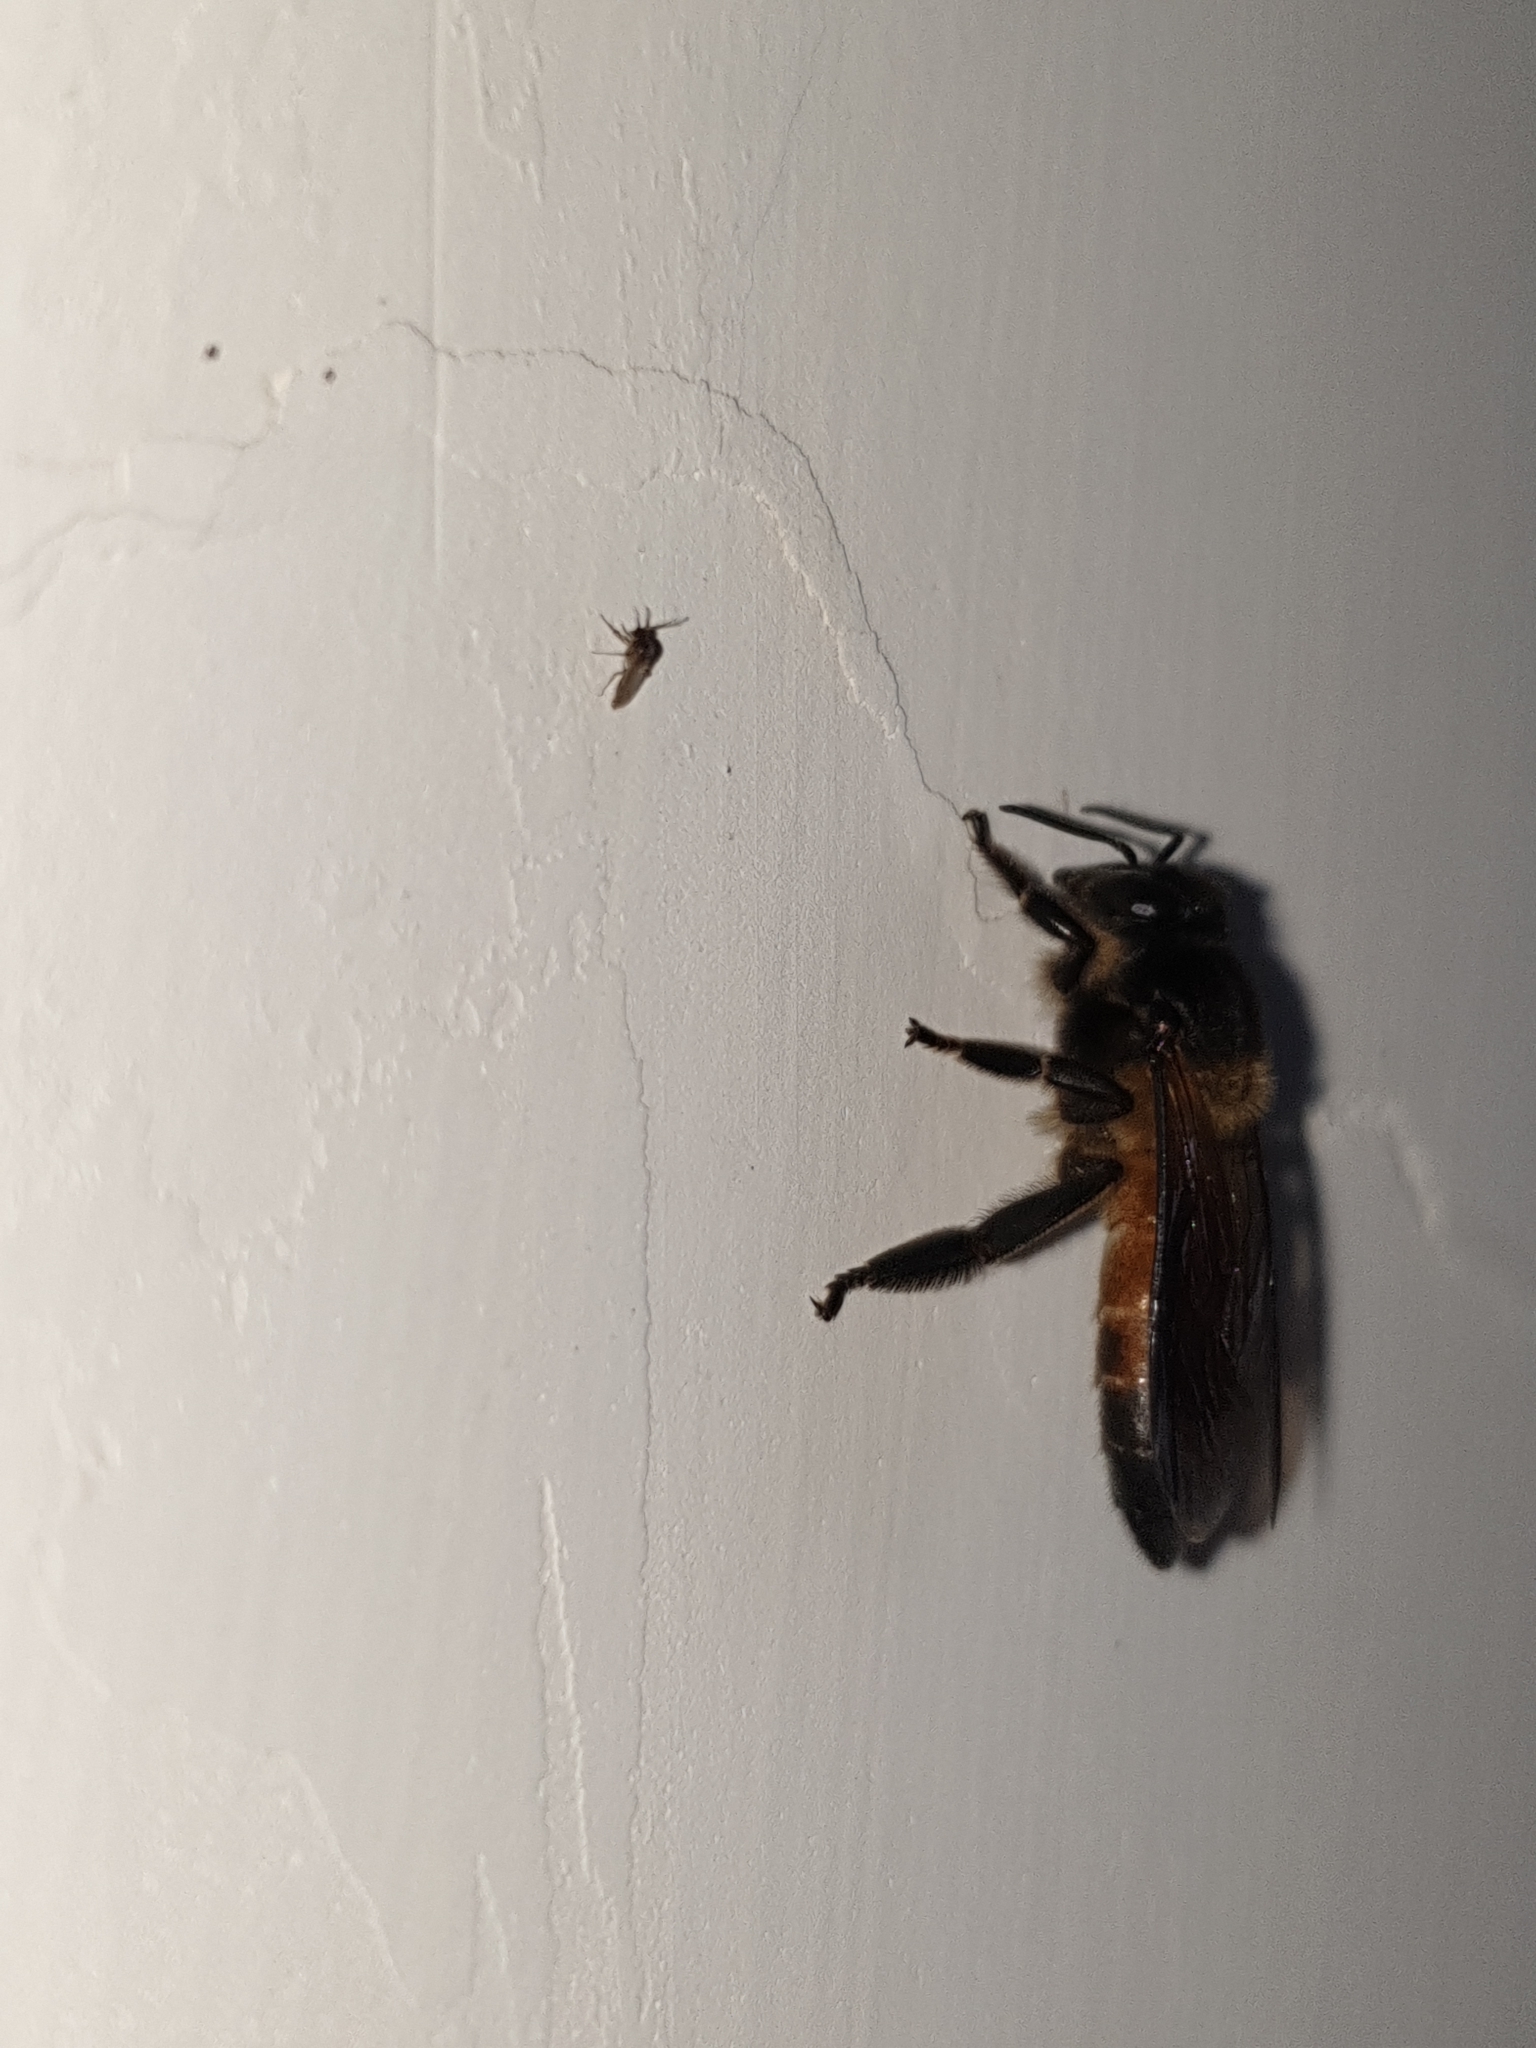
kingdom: Animalia
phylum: Arthropoda
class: Insecta
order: Hymenoptera
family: Apidae
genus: Apis
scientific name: Apis dorsata
